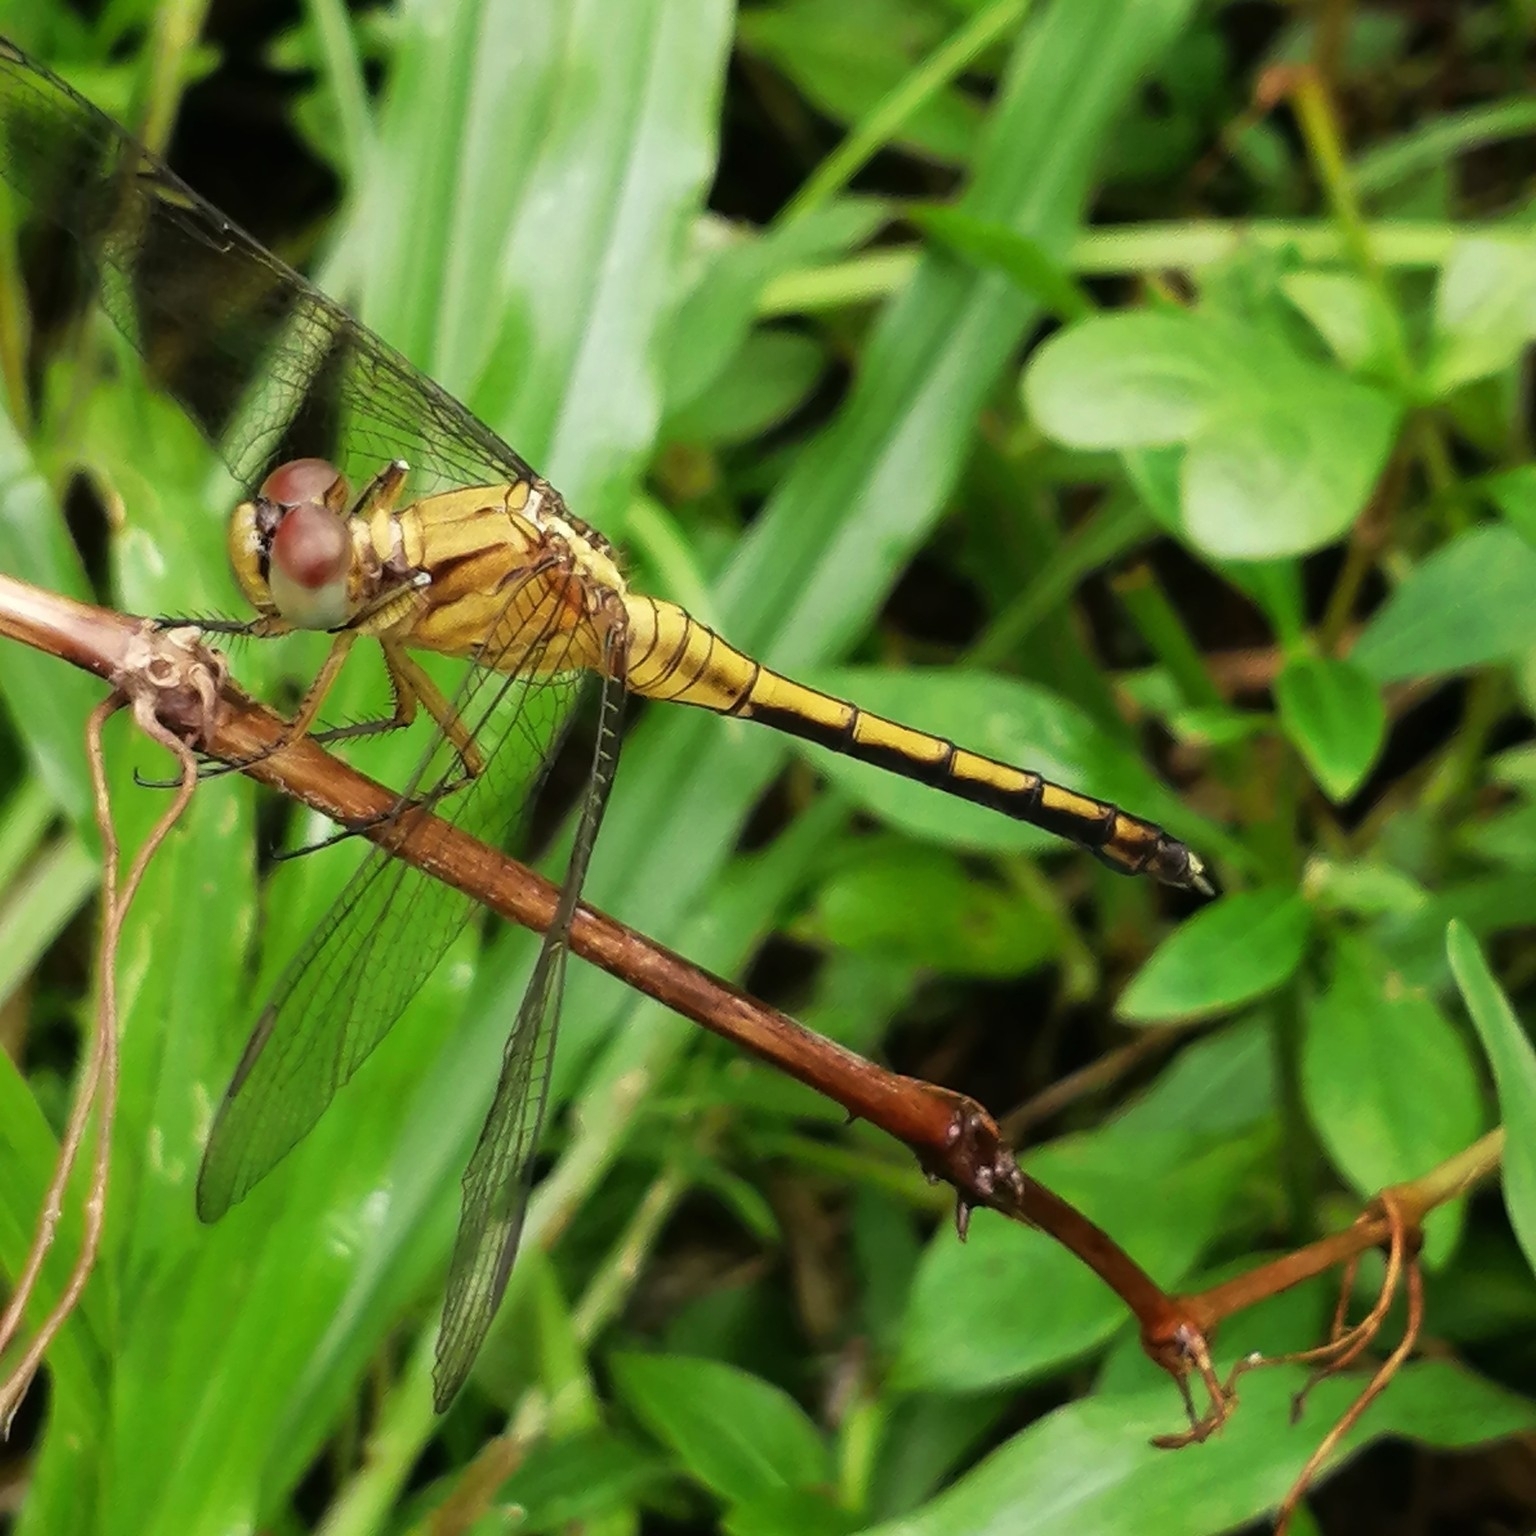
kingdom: Animalia
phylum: Arthropoda
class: Insecta
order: Odonata
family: Libellulidae
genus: Orthetrum
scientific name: Orthetrum luzonicum
